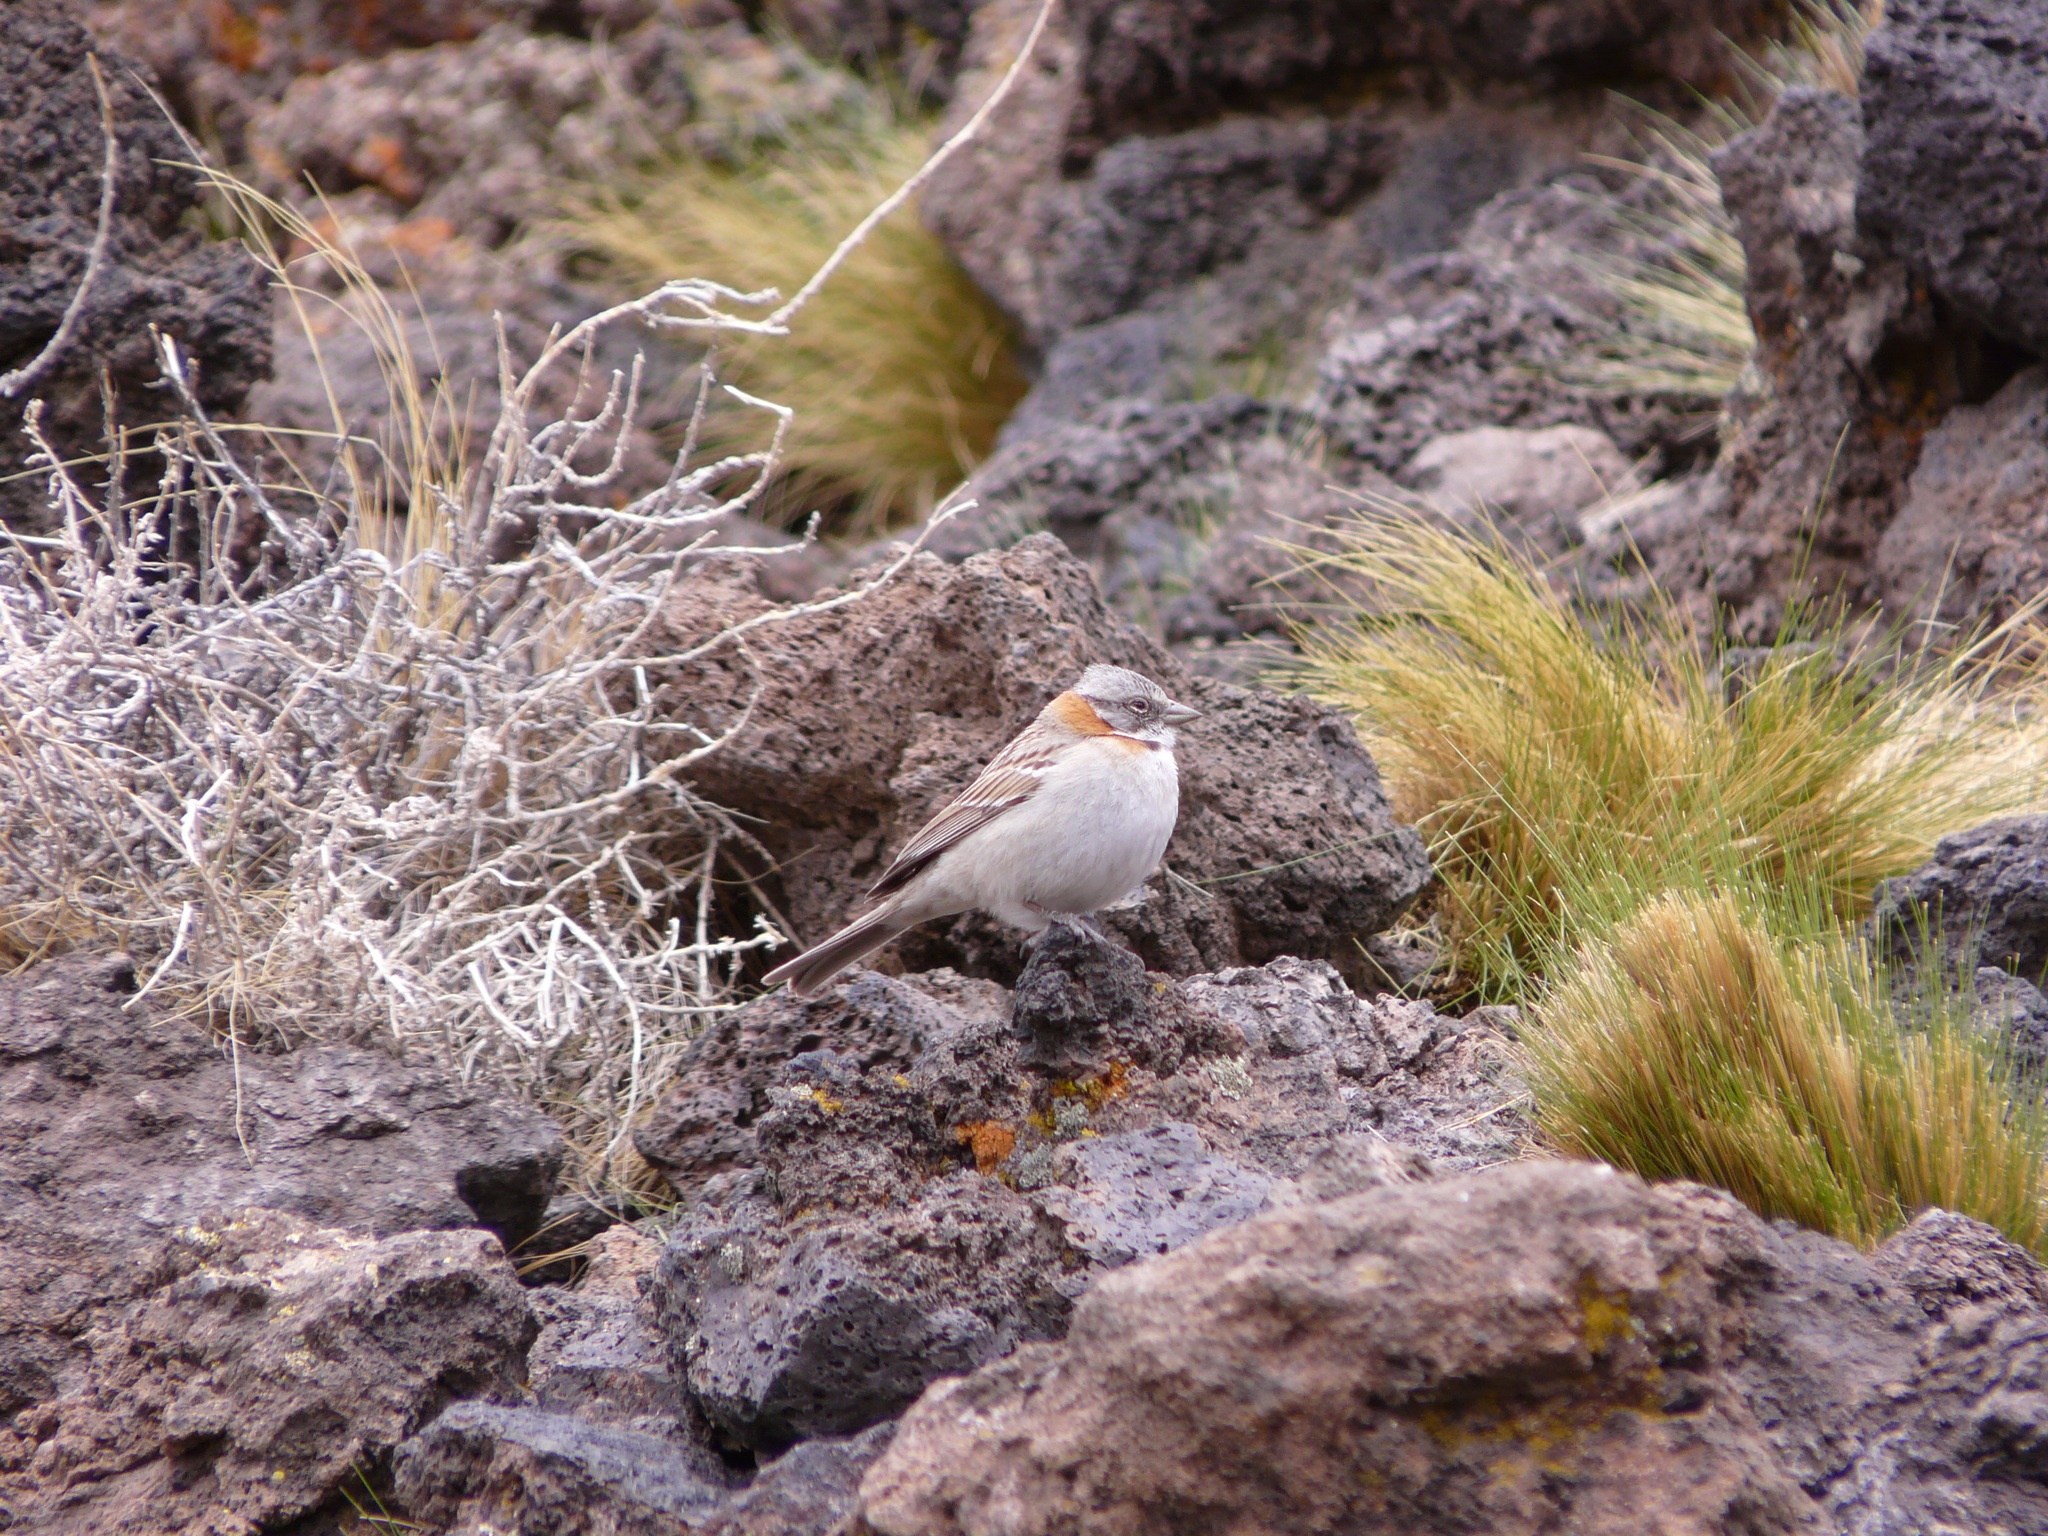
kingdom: Animalia
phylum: Chordata
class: Aves
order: Passeriformes
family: Passerellidae
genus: Zonotrichia
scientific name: Zonotrichia capensis
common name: Rufous-collared sparrow
